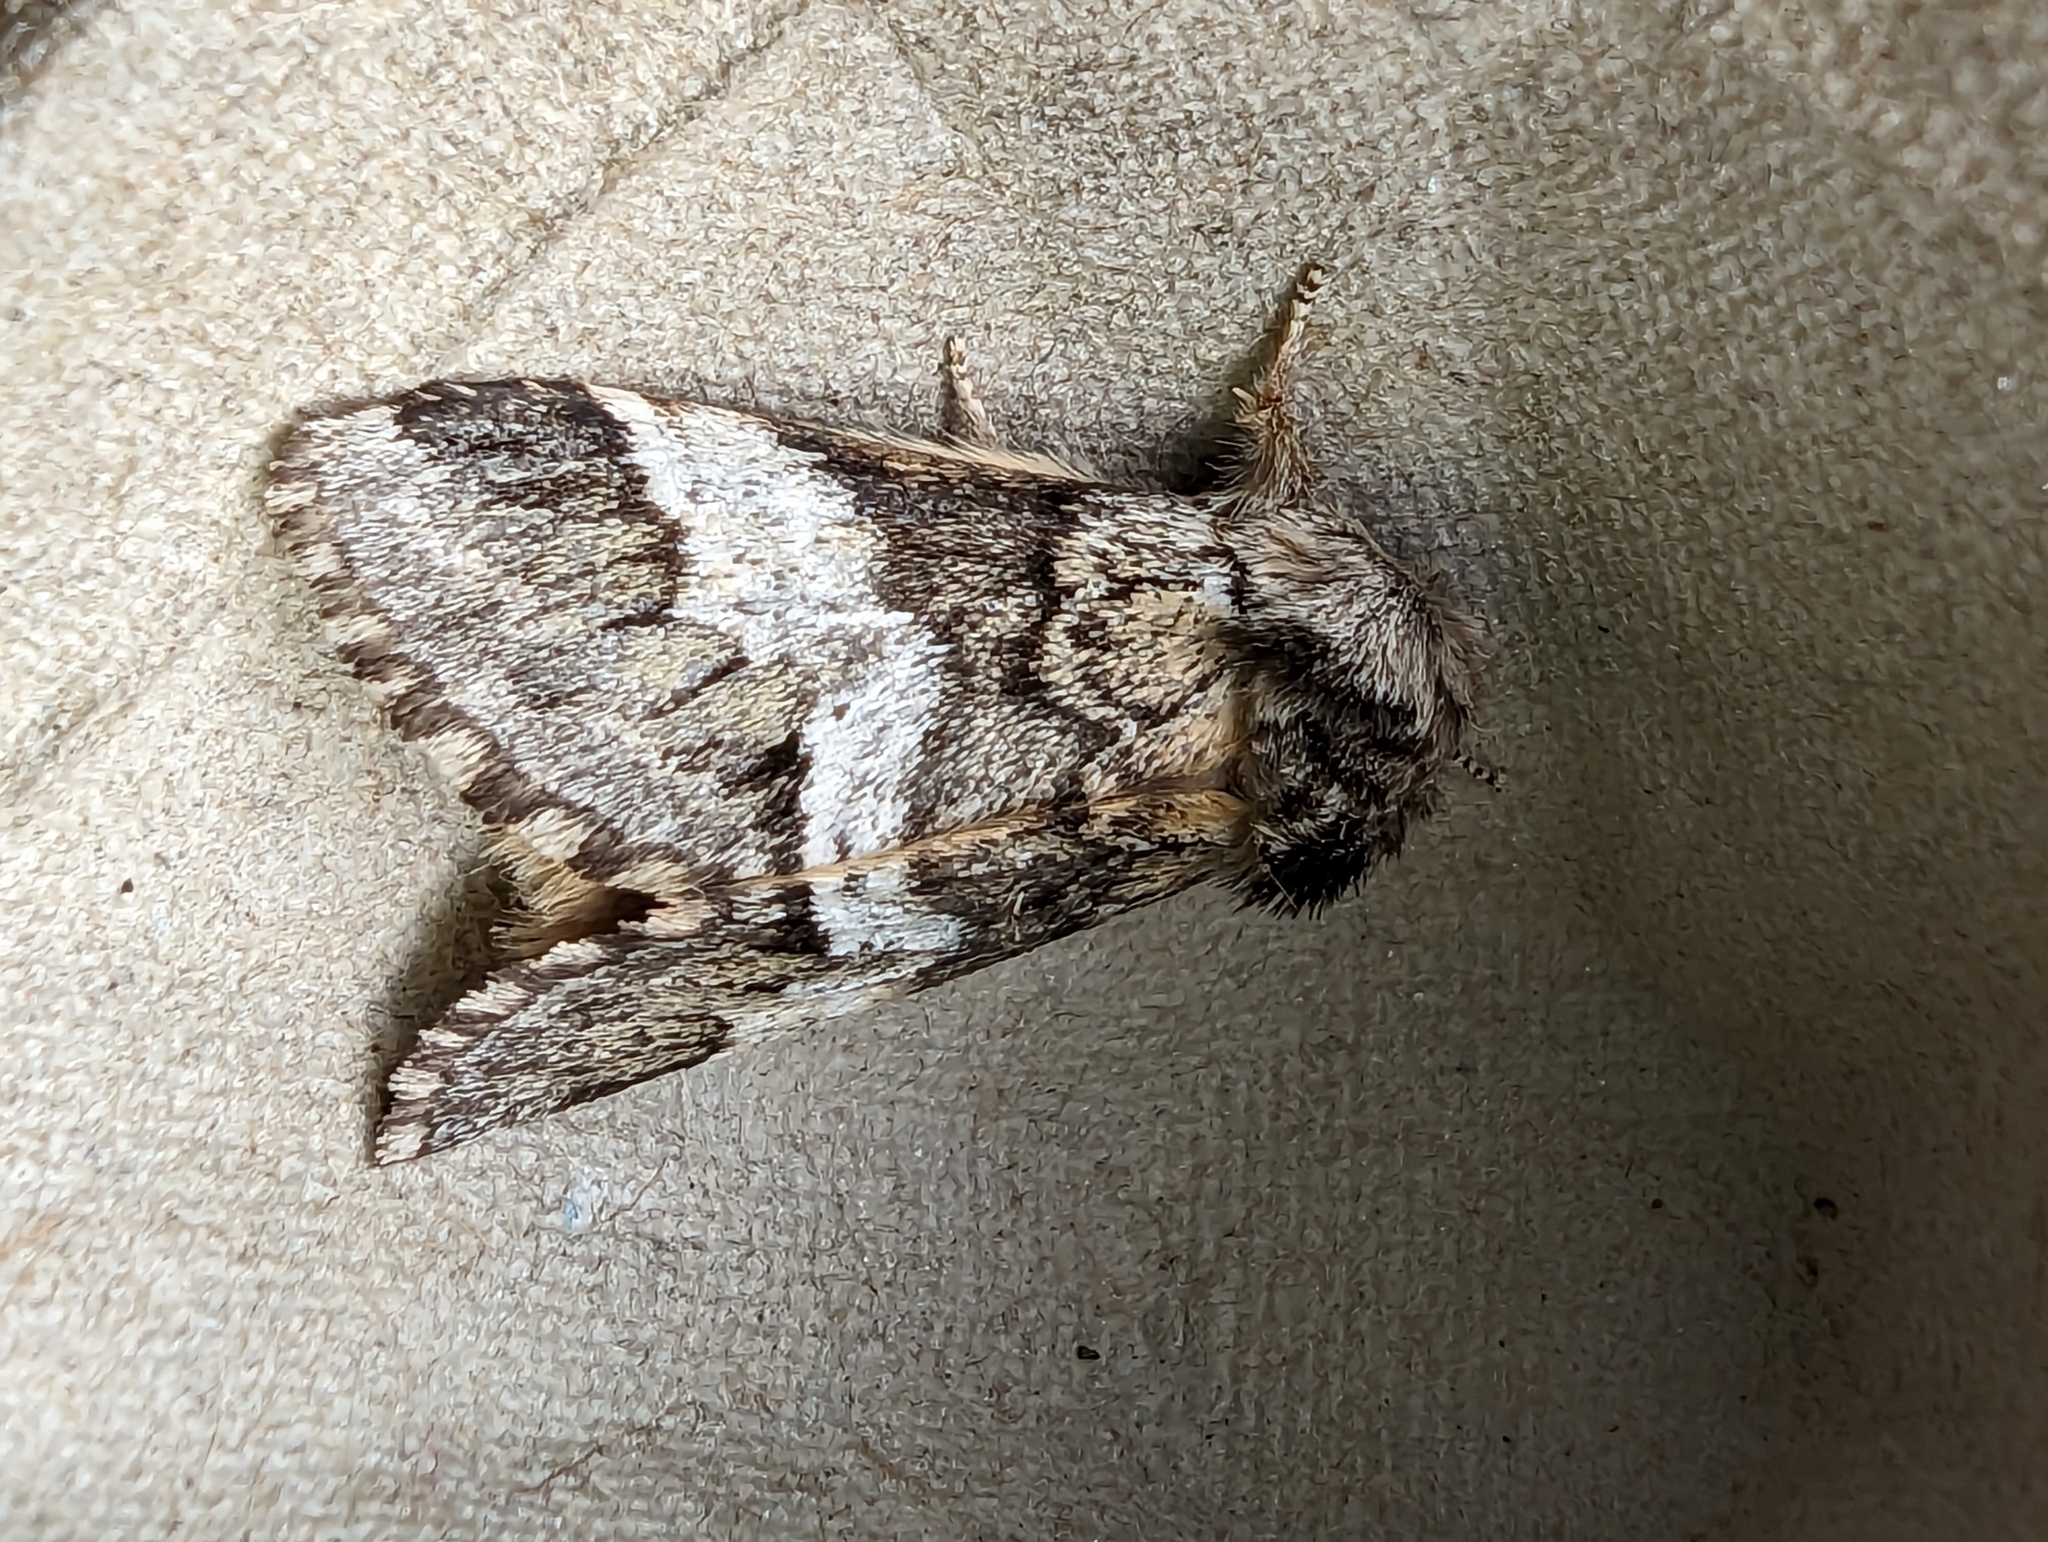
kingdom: Animalia
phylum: Arthropoda
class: Insecta
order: Lepidoptera
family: Notodontidae
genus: Drymonia
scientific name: Drymonia dodonaea
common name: Marbled brown
